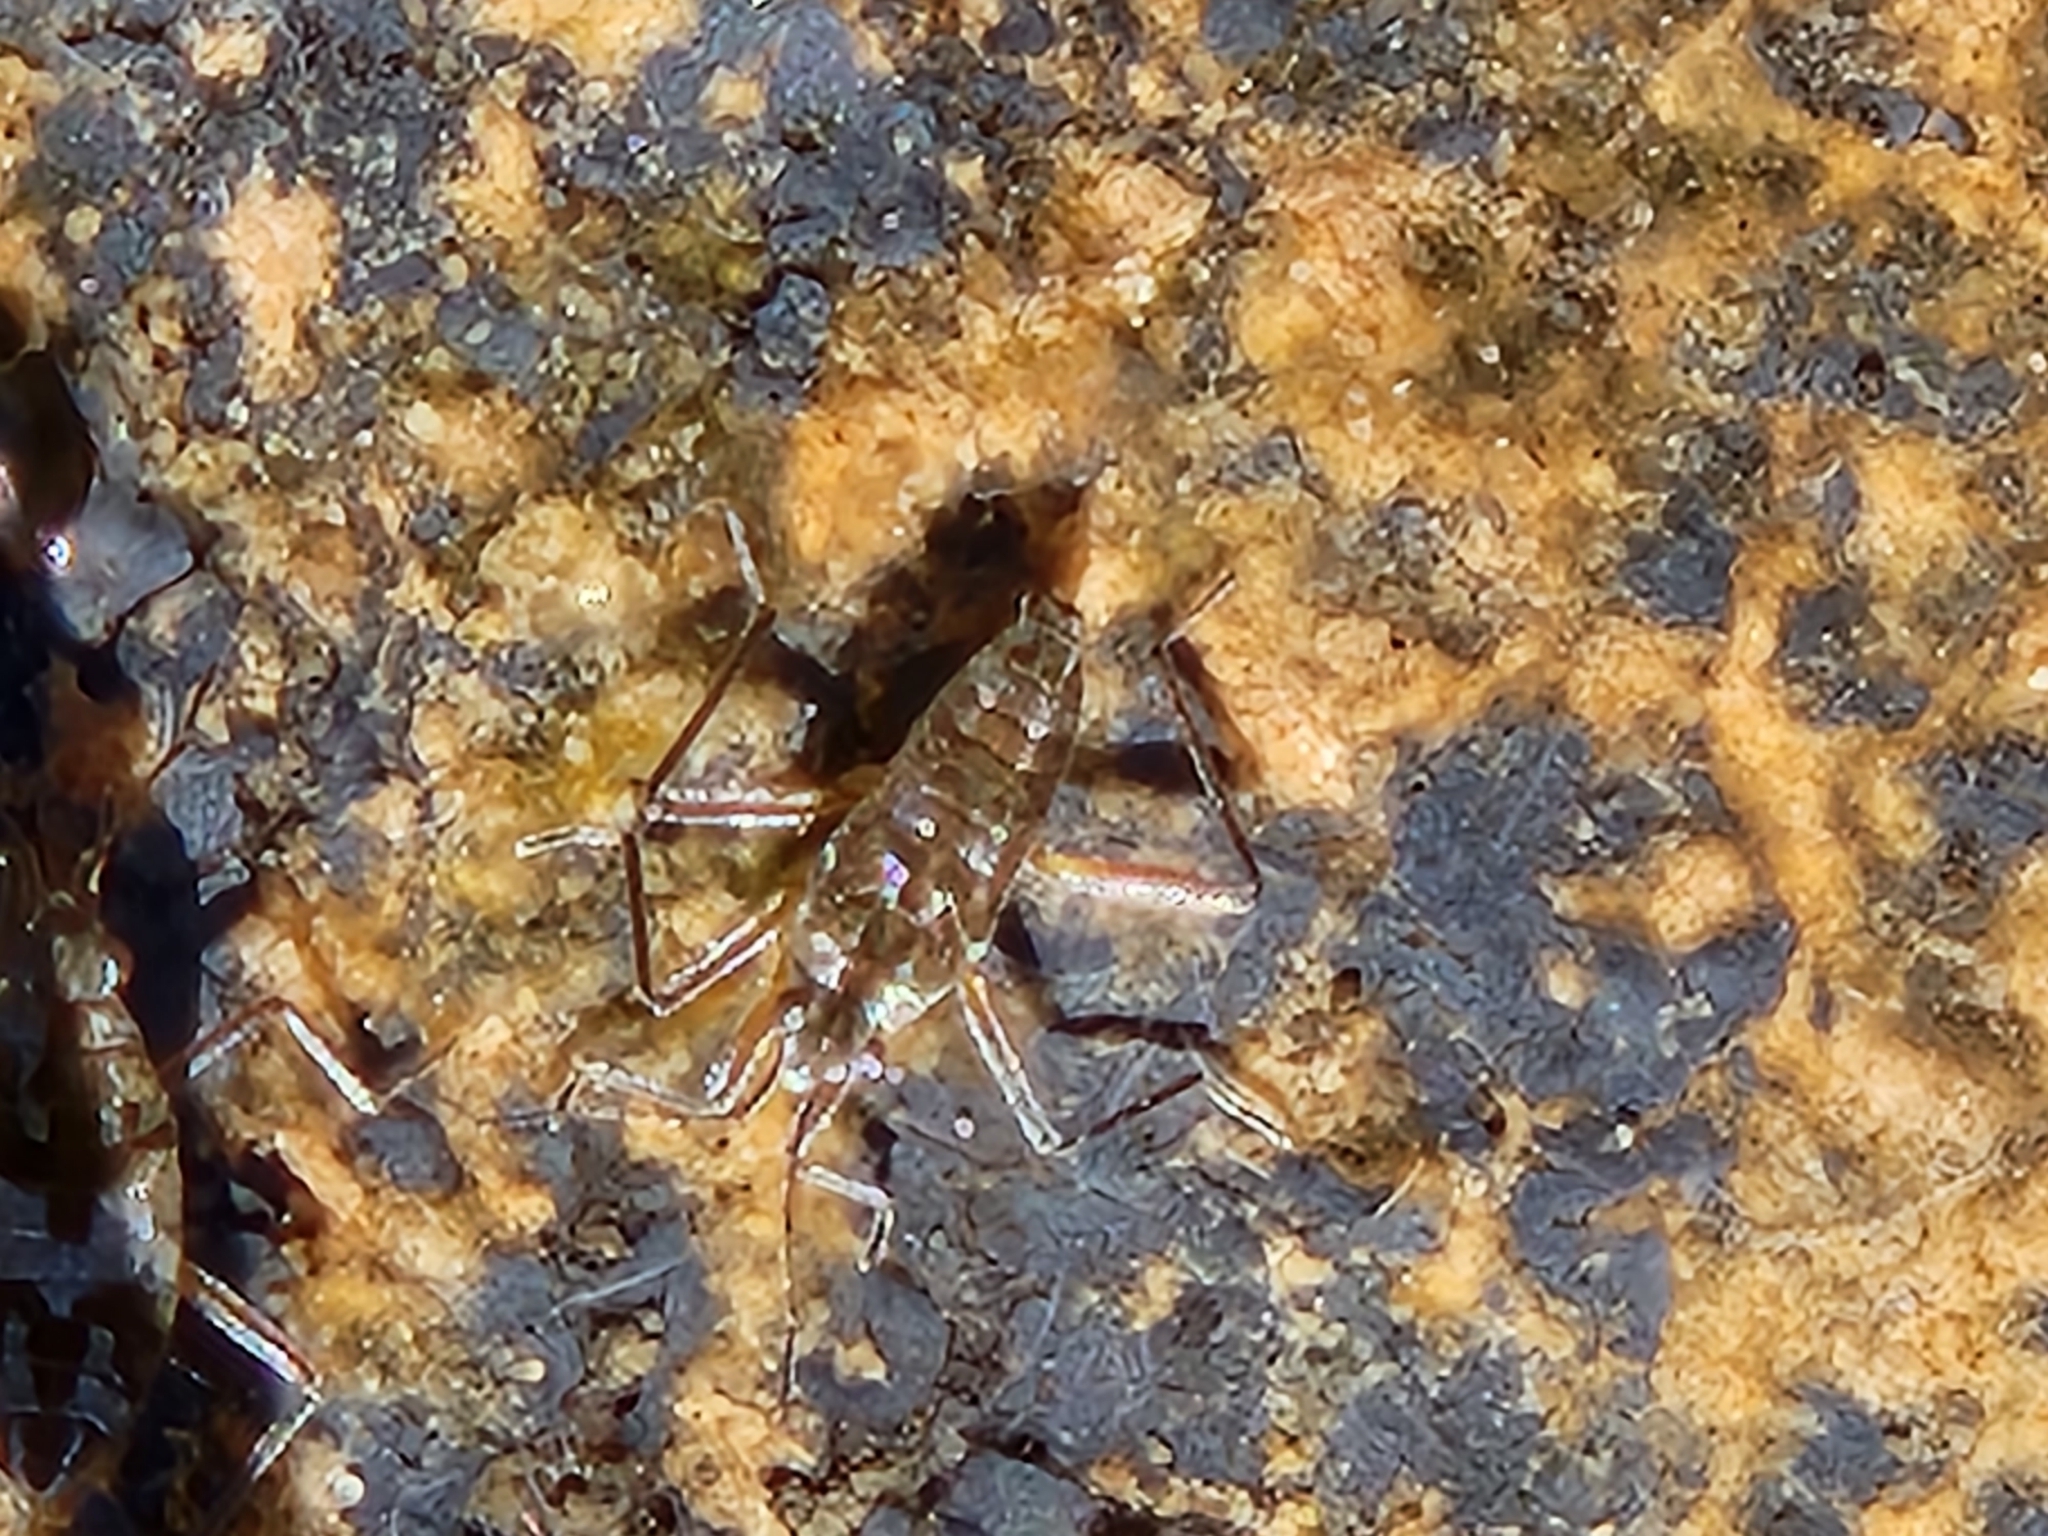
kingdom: Animalia
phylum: Arthropoda
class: Insecta
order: Hemiptera
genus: Kirkaldya
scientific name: Kirkaldya
